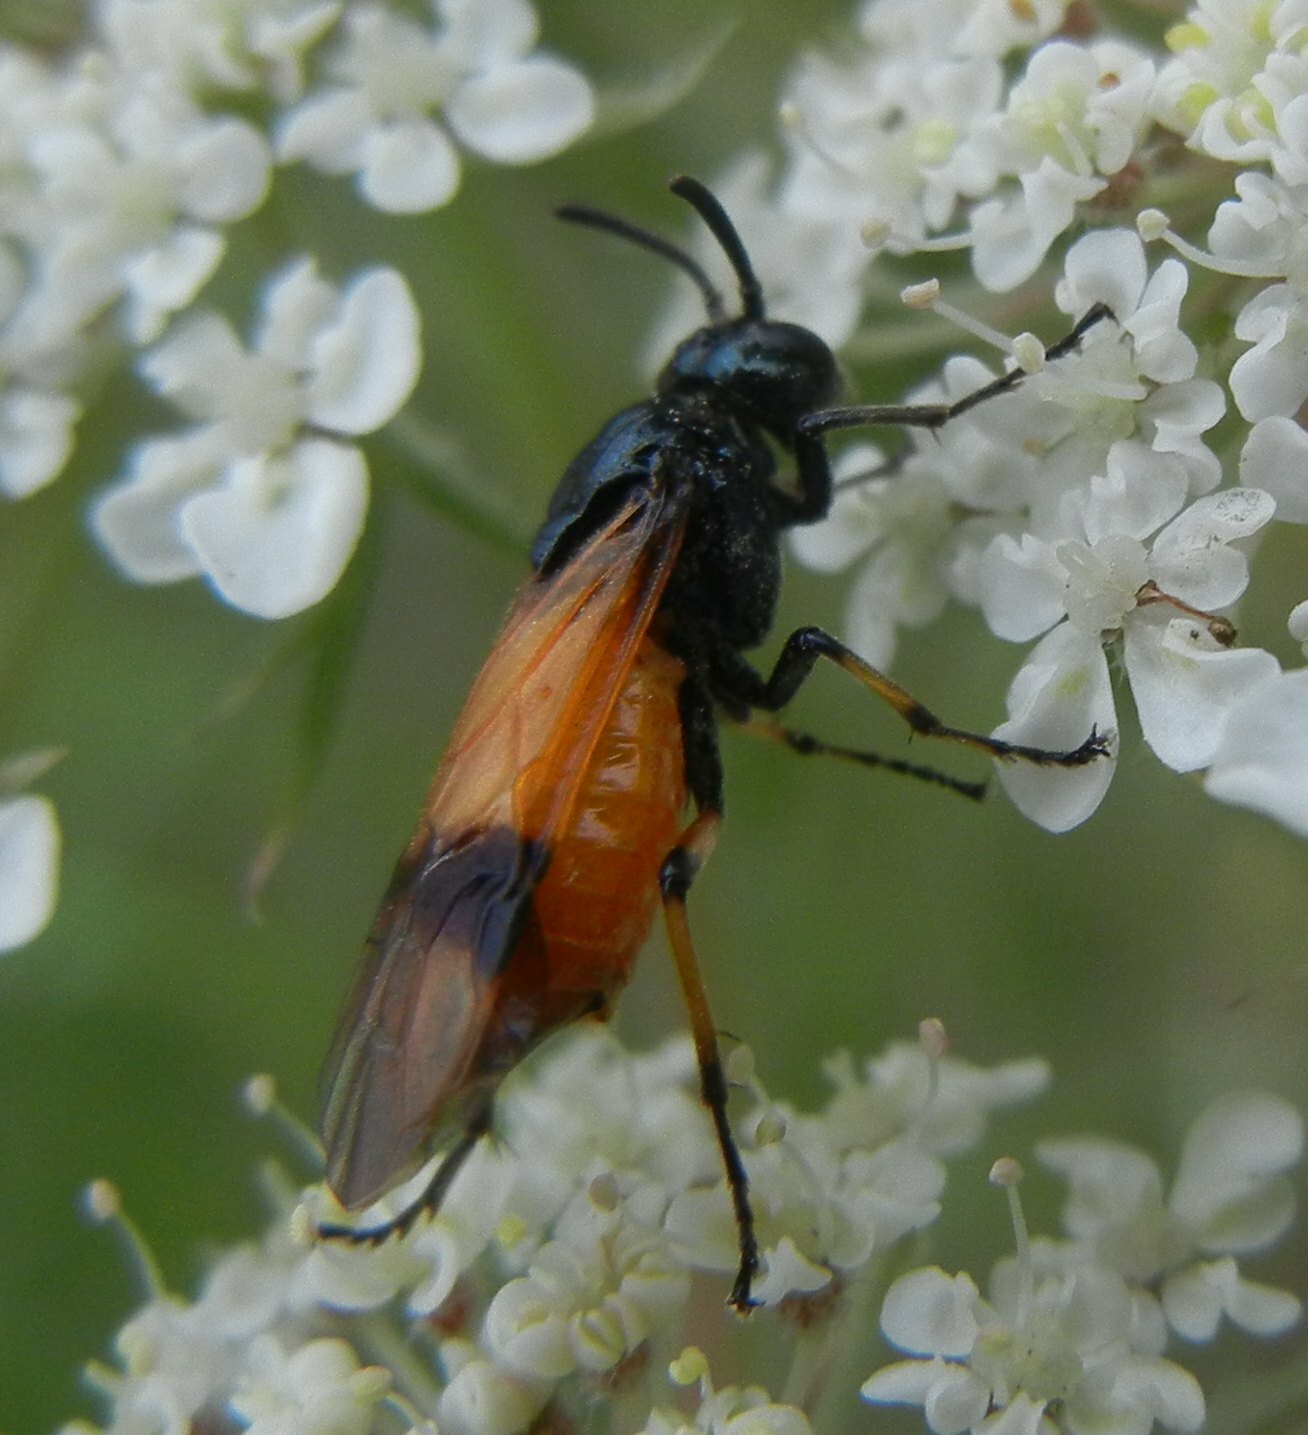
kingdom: Animalia
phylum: Arthropoda
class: Insecta
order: Hymenoptera
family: Argidae
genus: Arge
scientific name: Arge cyanocrocea
